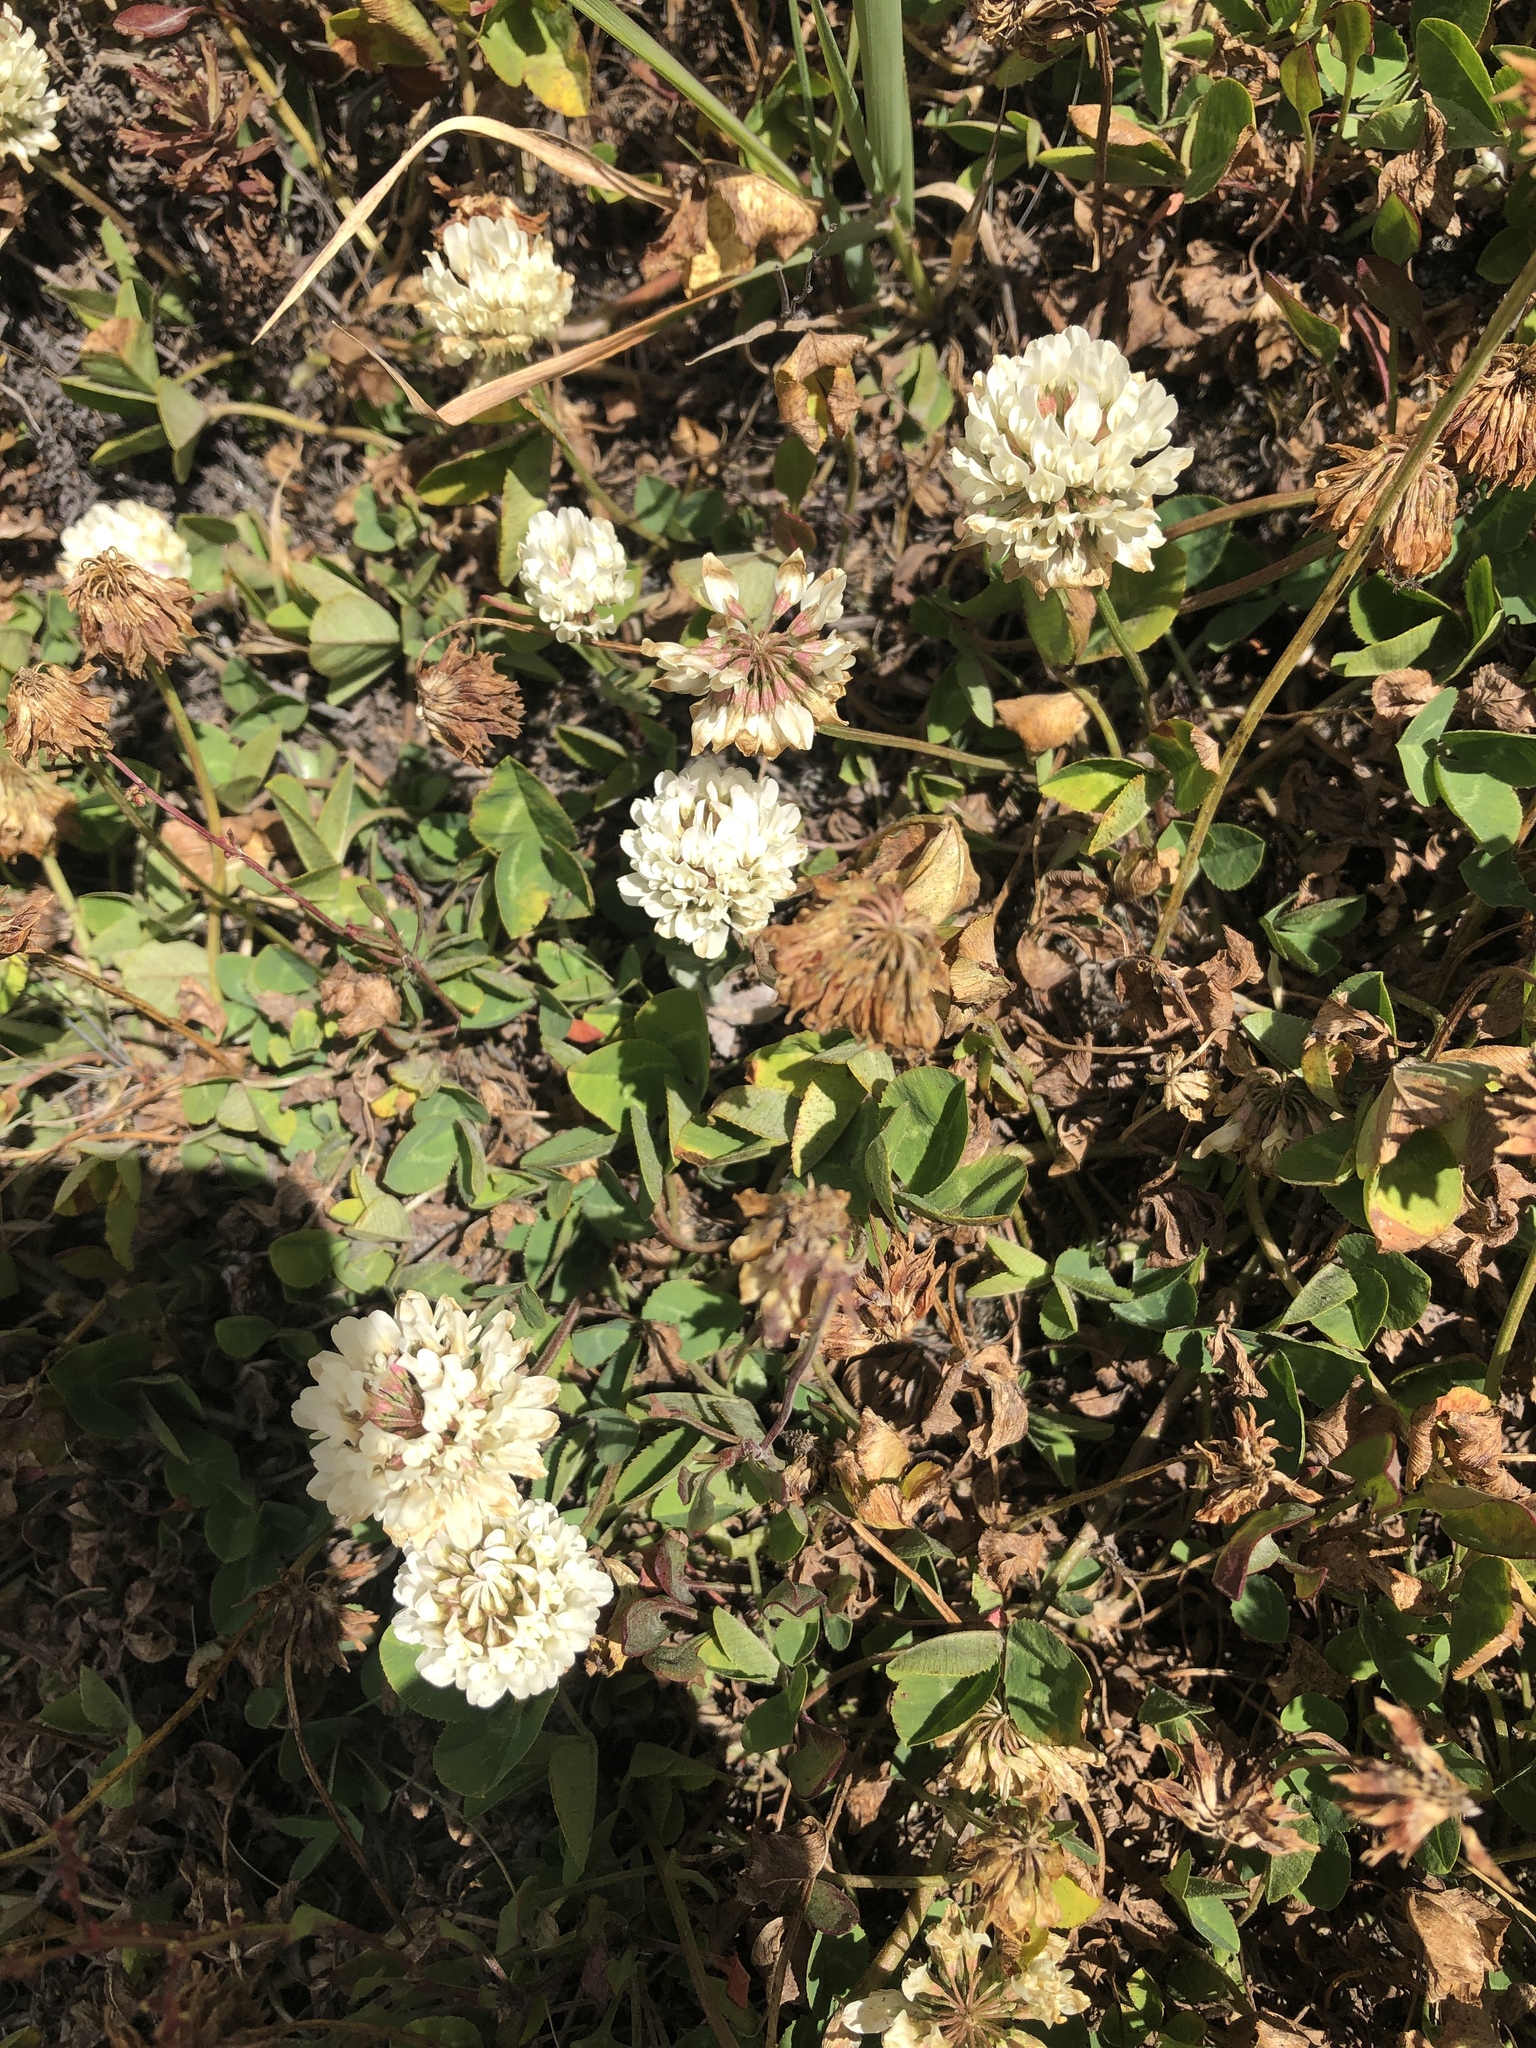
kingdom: Plantae
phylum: Tracheophyta
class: Magnoliopsida
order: Fabales
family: Fabaceae
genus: Trifolium
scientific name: Trifolium repens
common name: White clover
